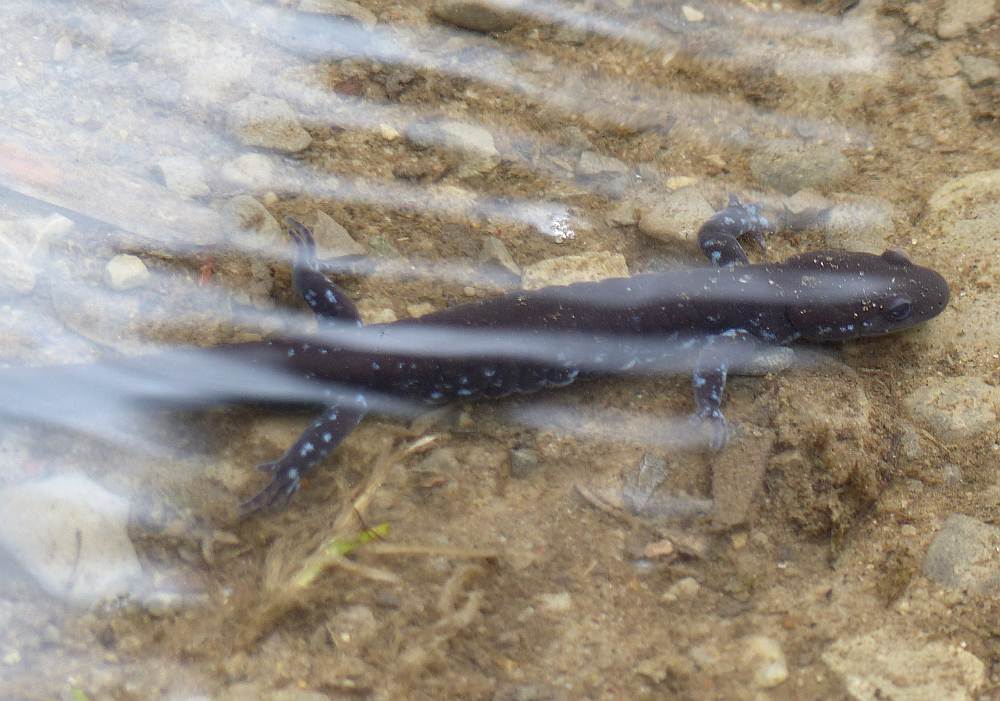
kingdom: Animalia
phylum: Chordata
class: Amphibia
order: Caudata
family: Ambystomatidae
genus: Ambystoma
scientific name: Ambystoma laterale
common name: Blue-spotted salamander
